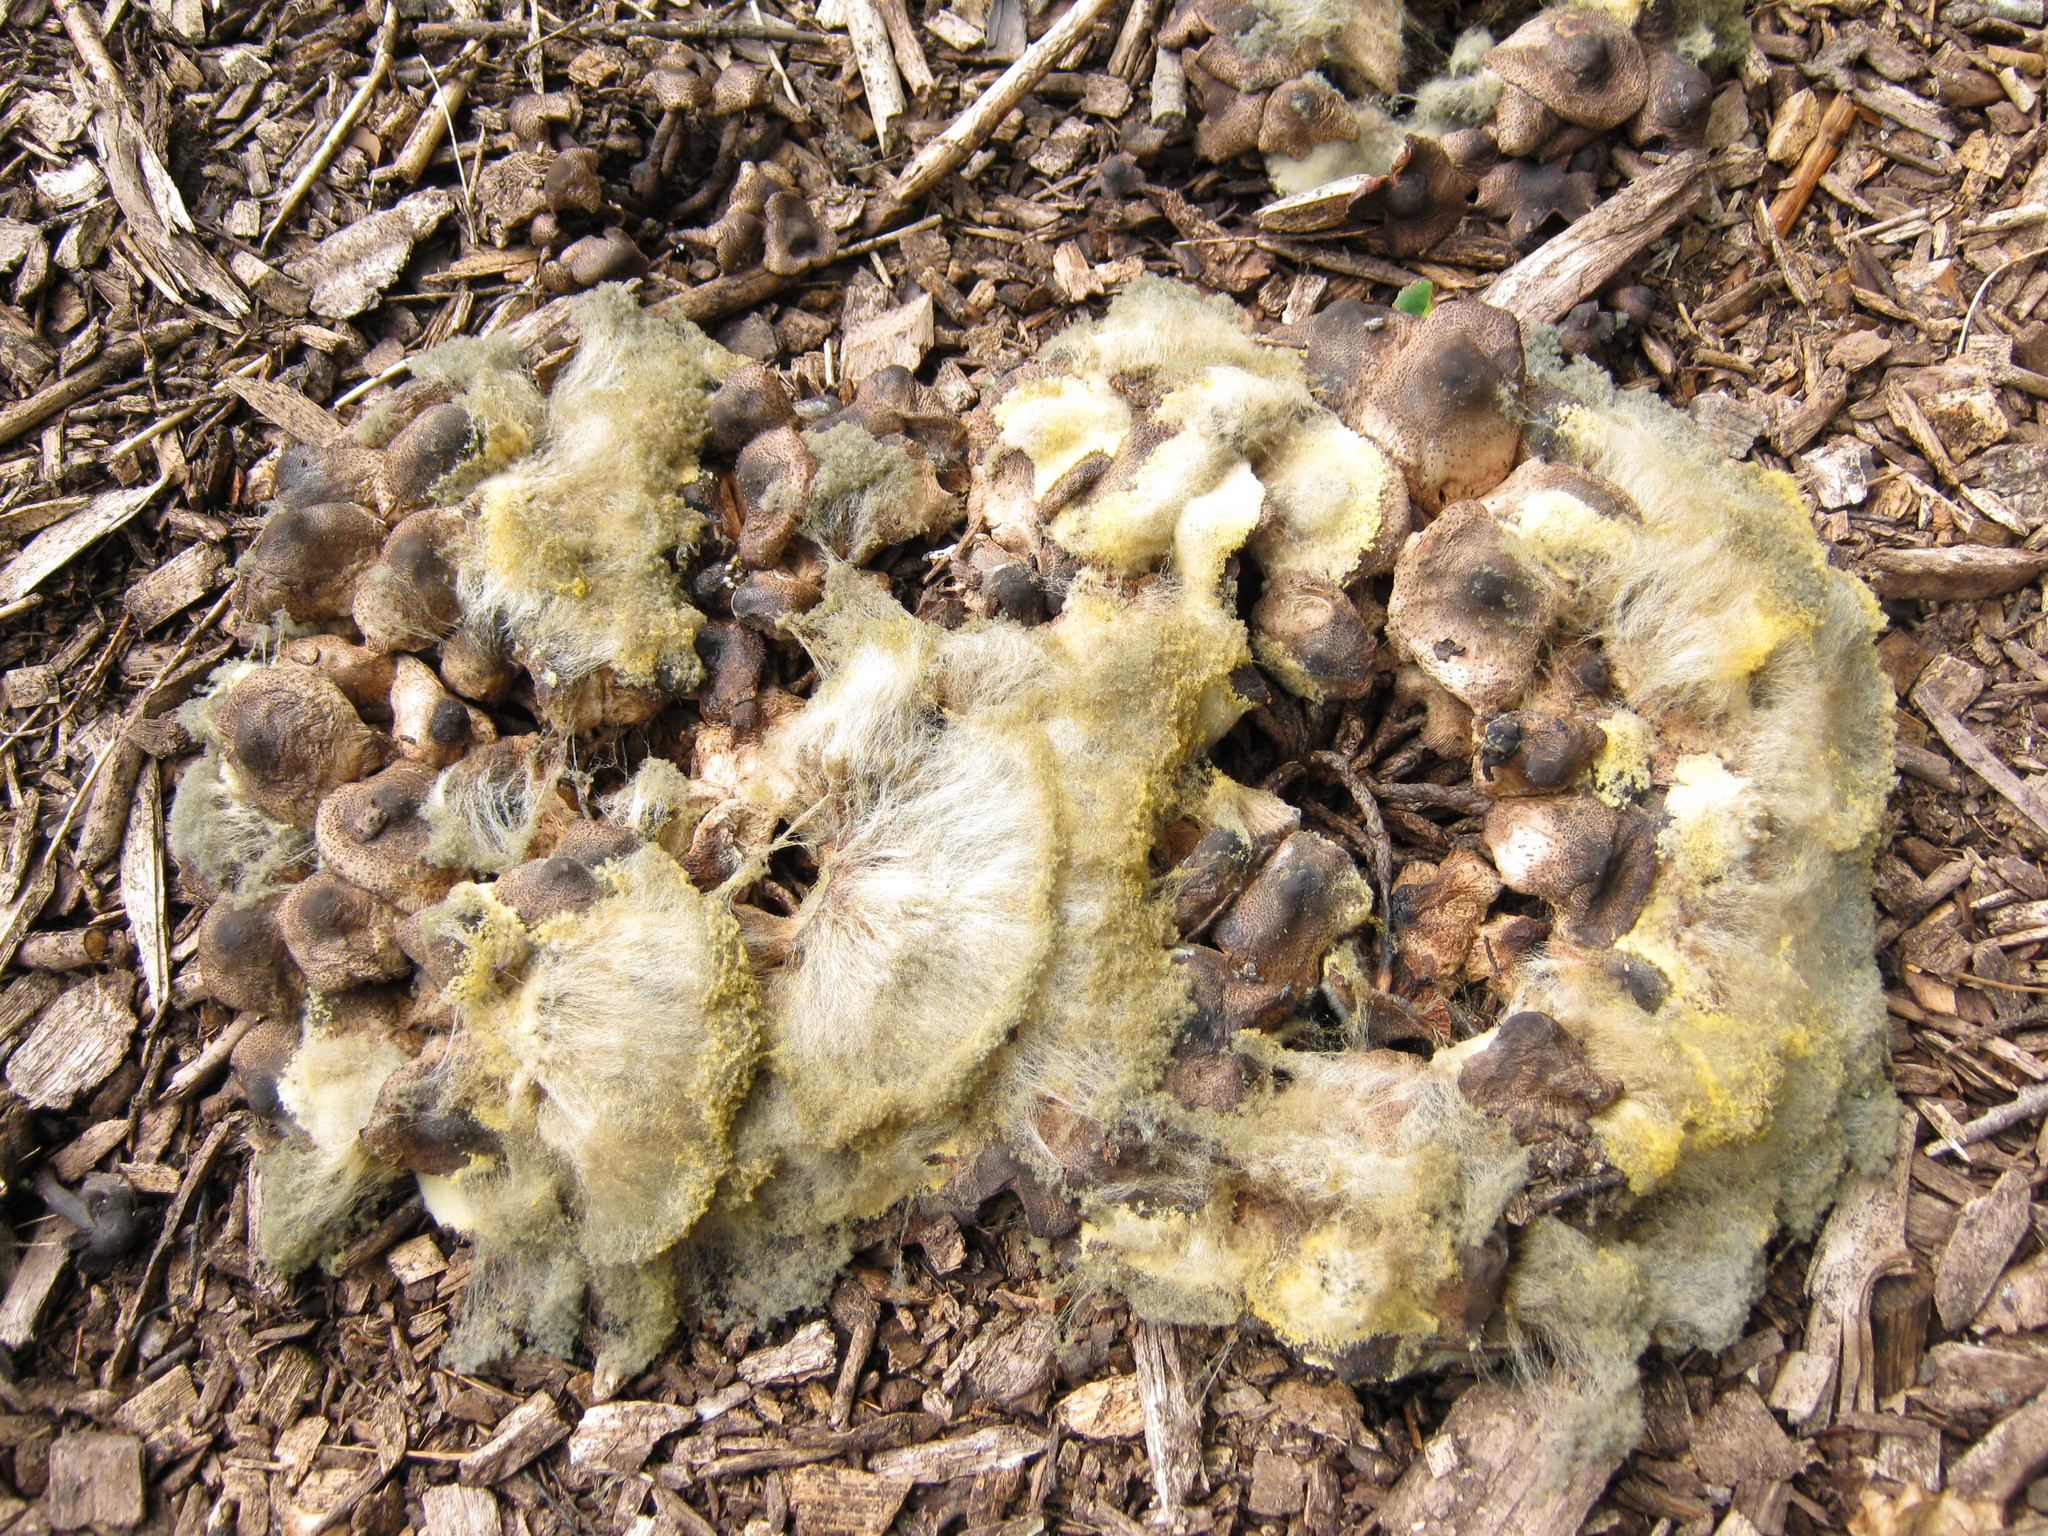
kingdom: Fungi
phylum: Mucoromycota
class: Mucoromycetes
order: Mucorales
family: Rhizopodaceae
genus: Syzygites
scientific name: Syzygites megalocarpus
